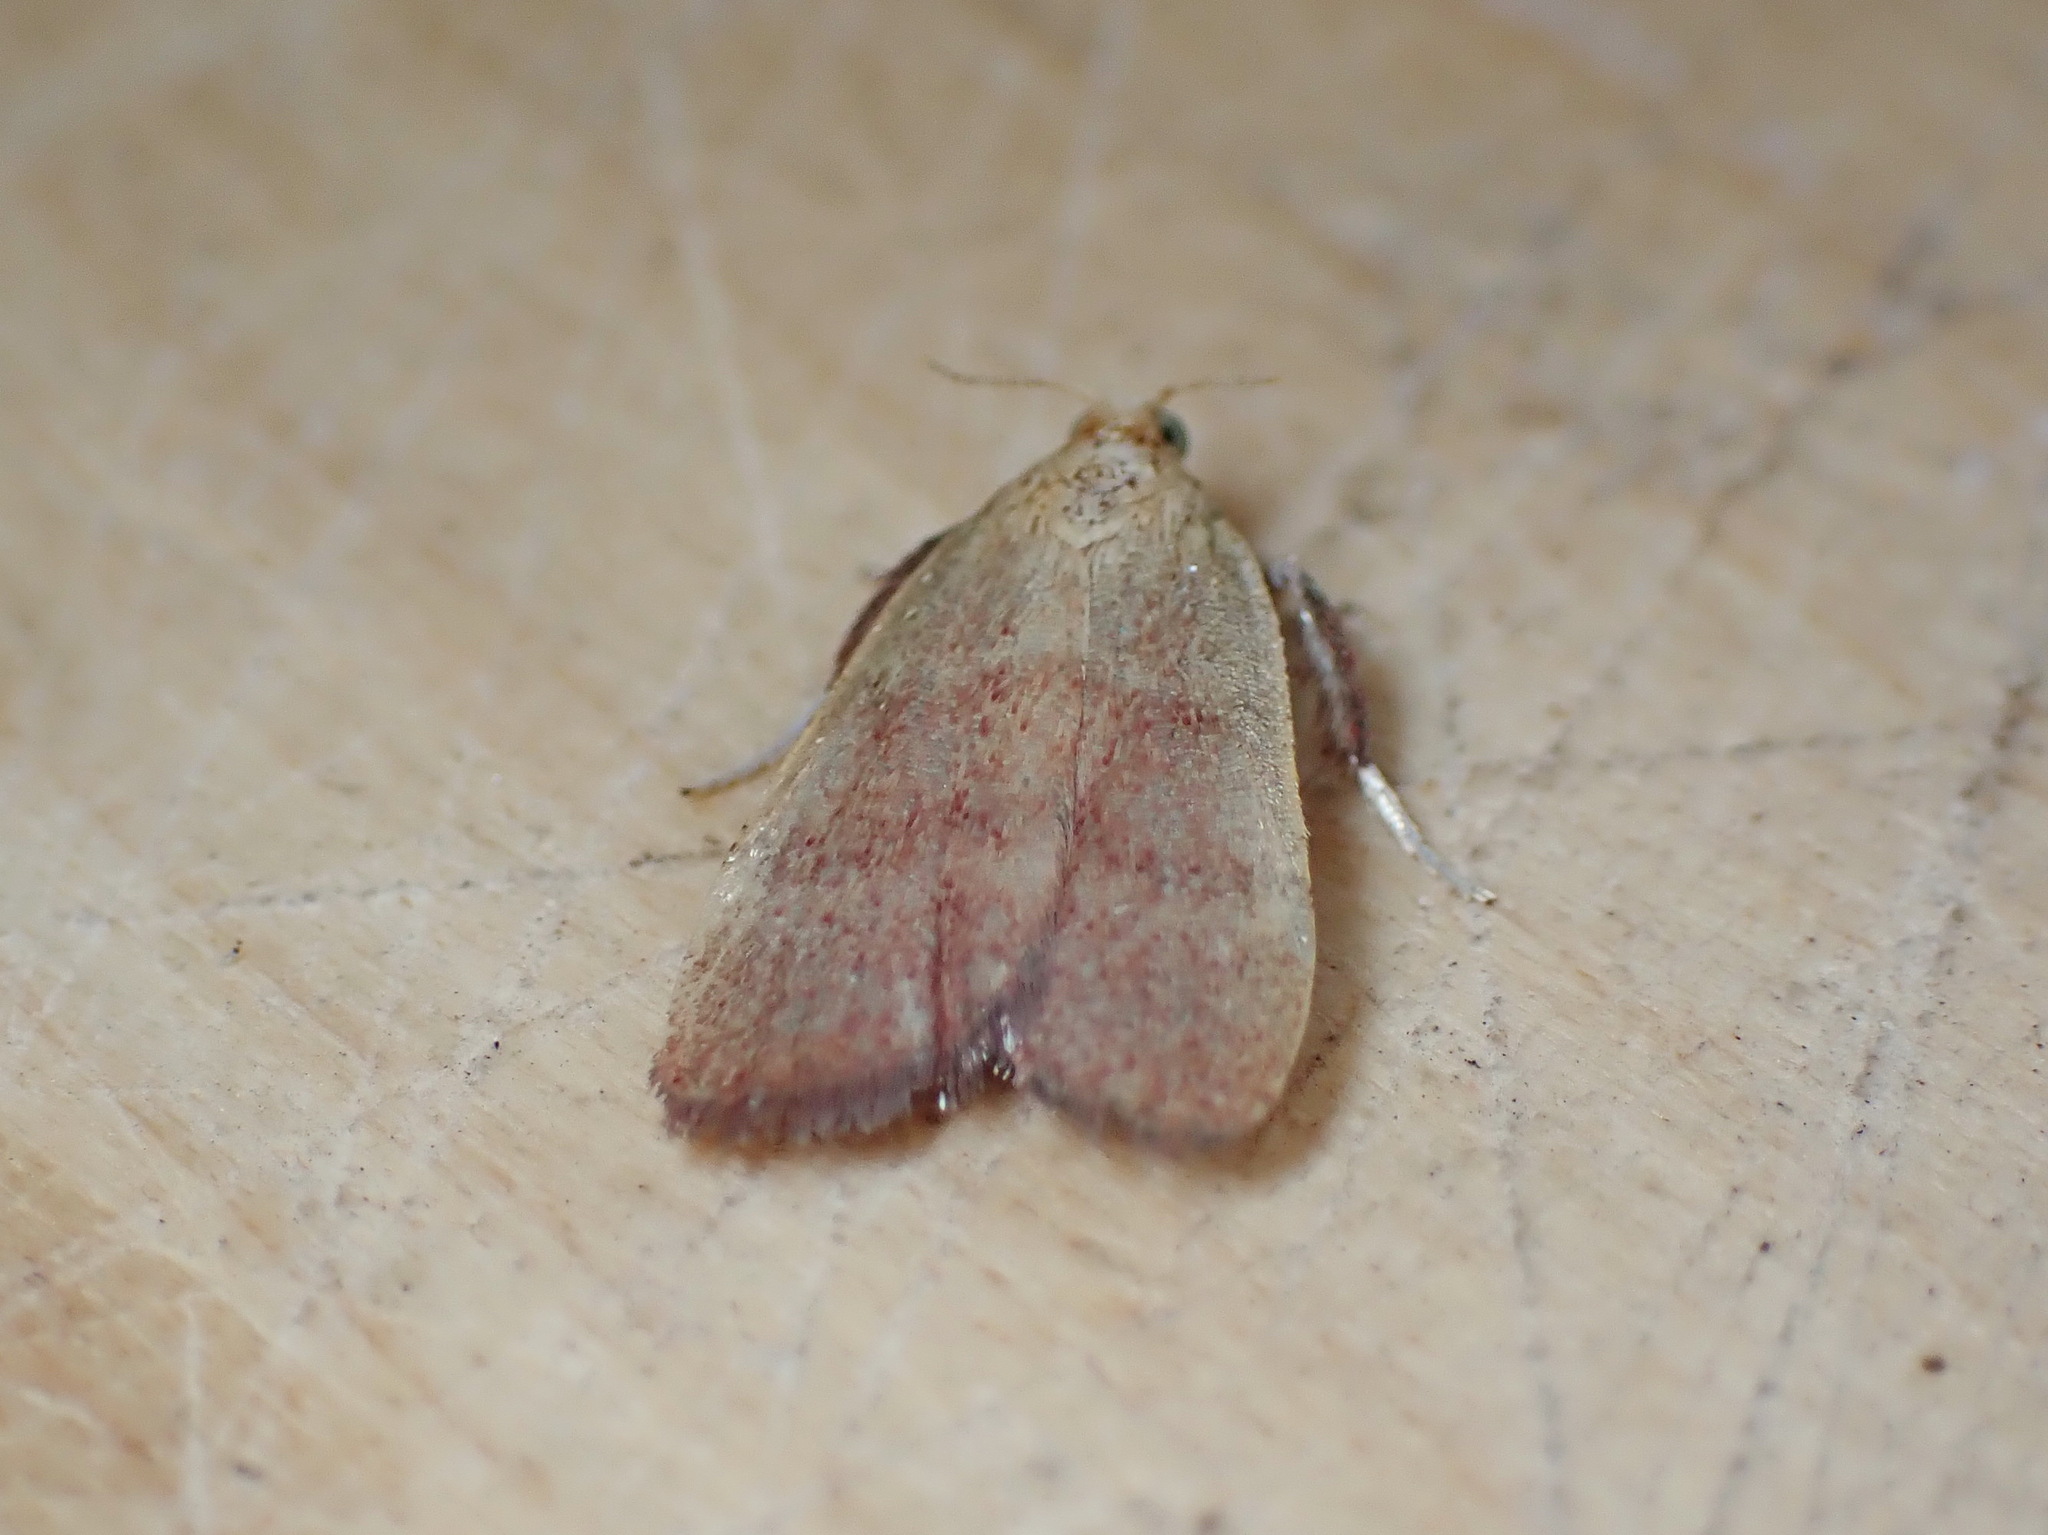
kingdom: Animalia
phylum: Arthropoda
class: Insecta
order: Lepidoptera
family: Pyralidae
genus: Condylolomia
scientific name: Condylolomia participialis
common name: Drab condylolomia moth
